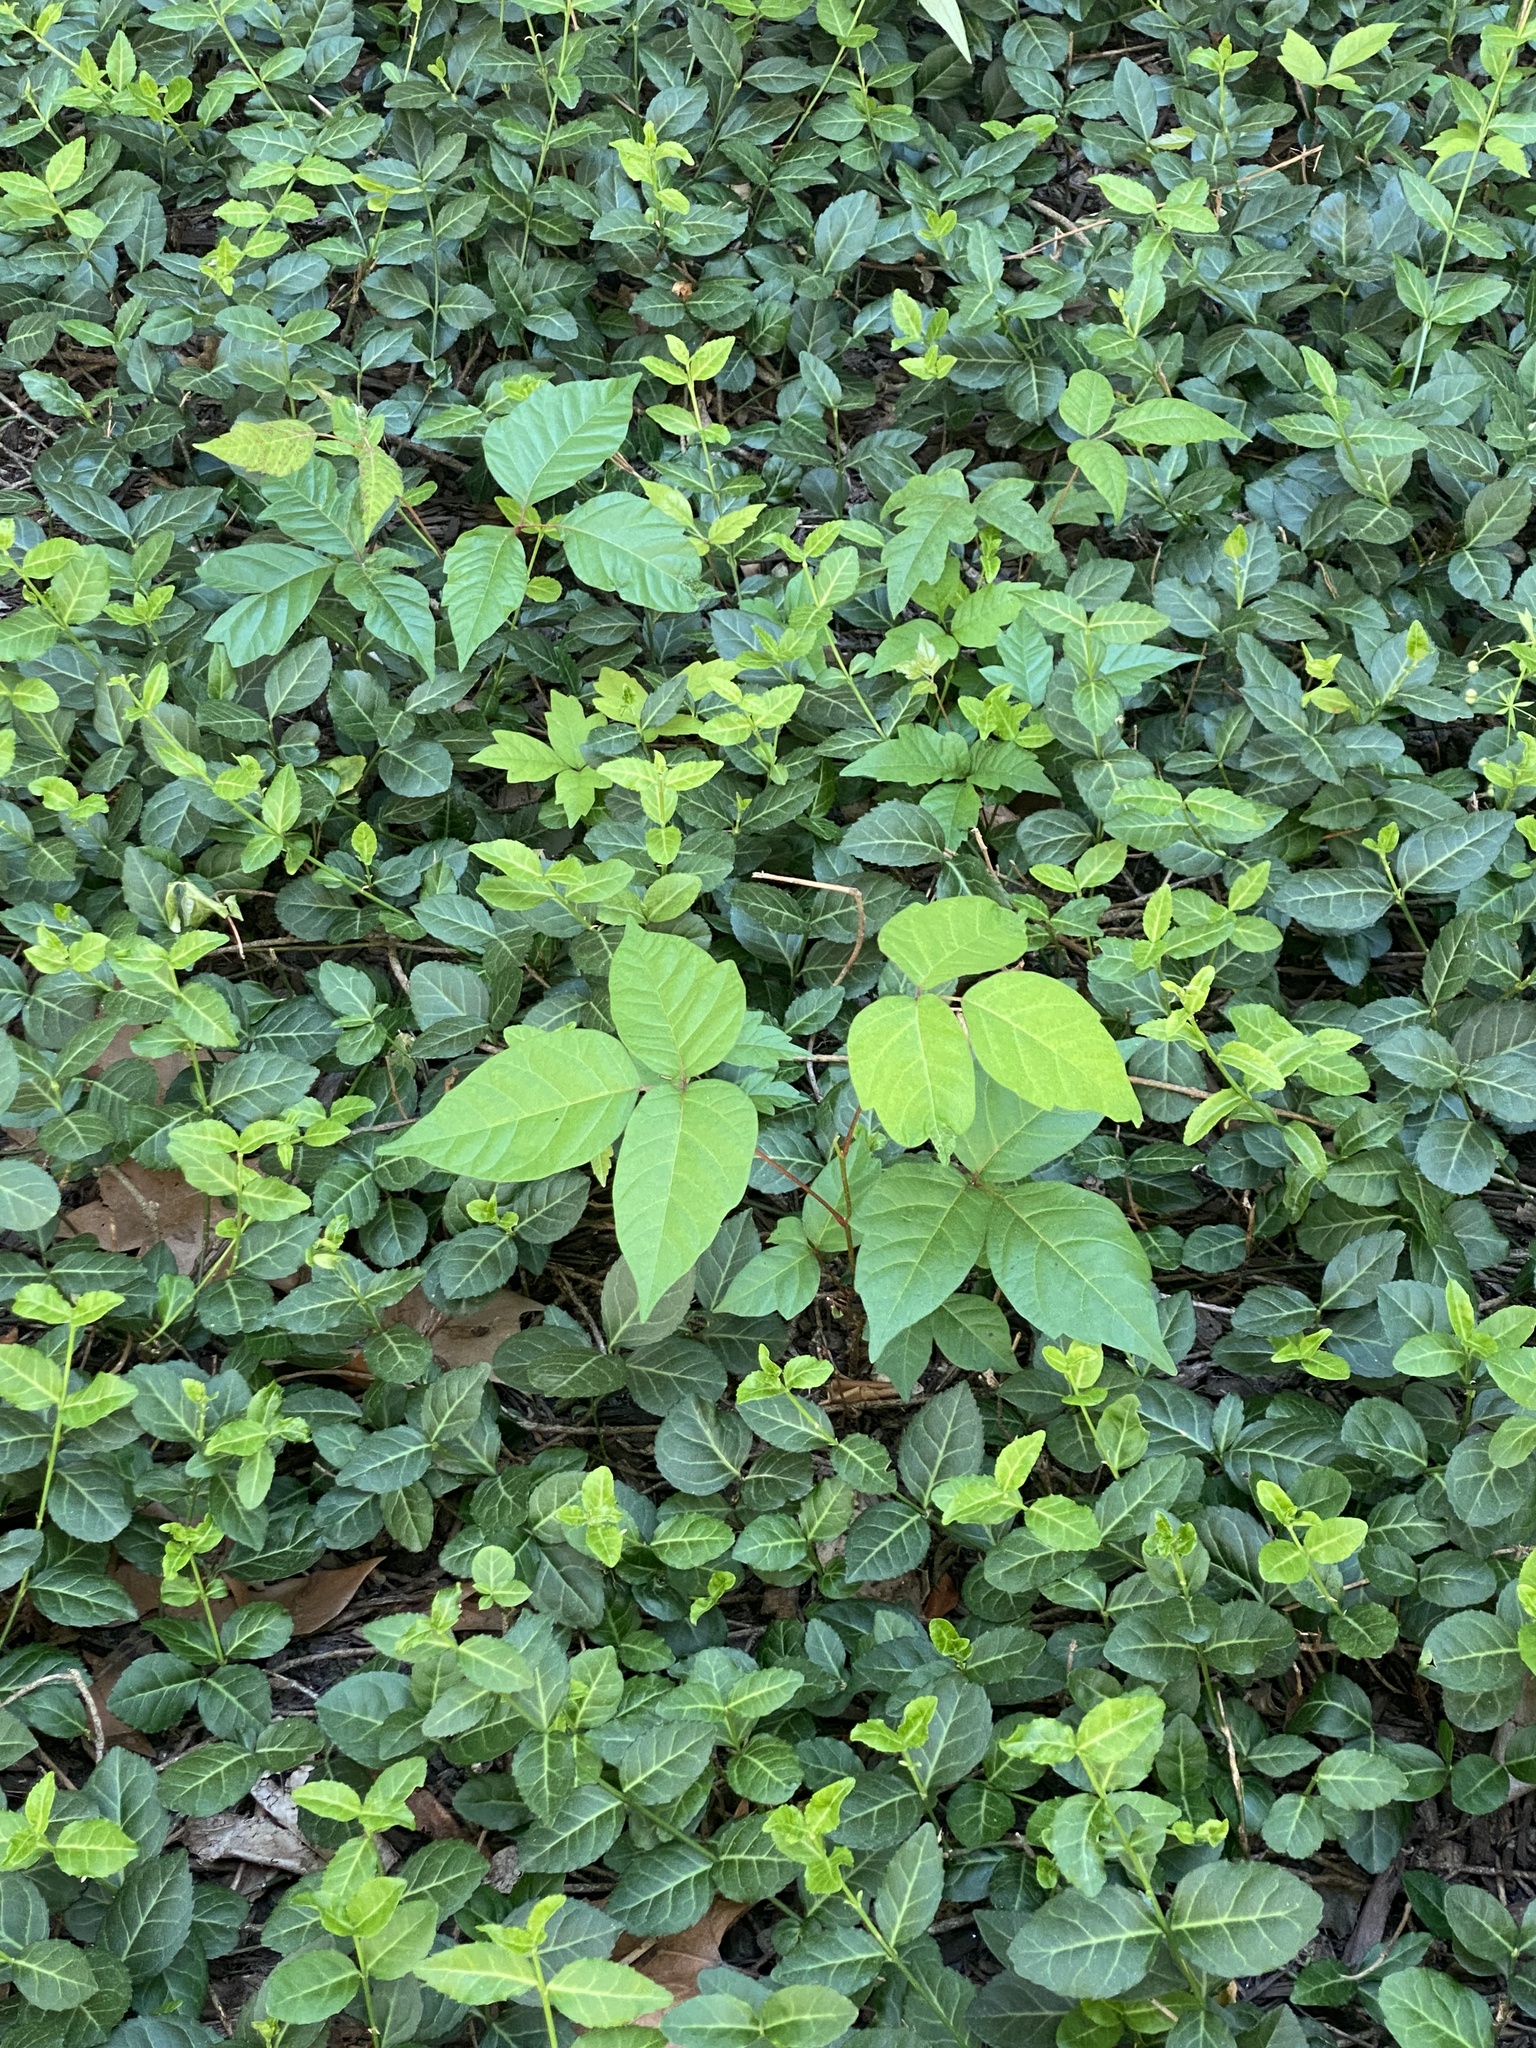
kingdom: Plantae
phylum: Tracheophyta
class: Magnoliopsida
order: Sapindales
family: Anacardiaceae
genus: Toxicodendron
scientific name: Toxicodendron radicans
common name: Poison ivy
